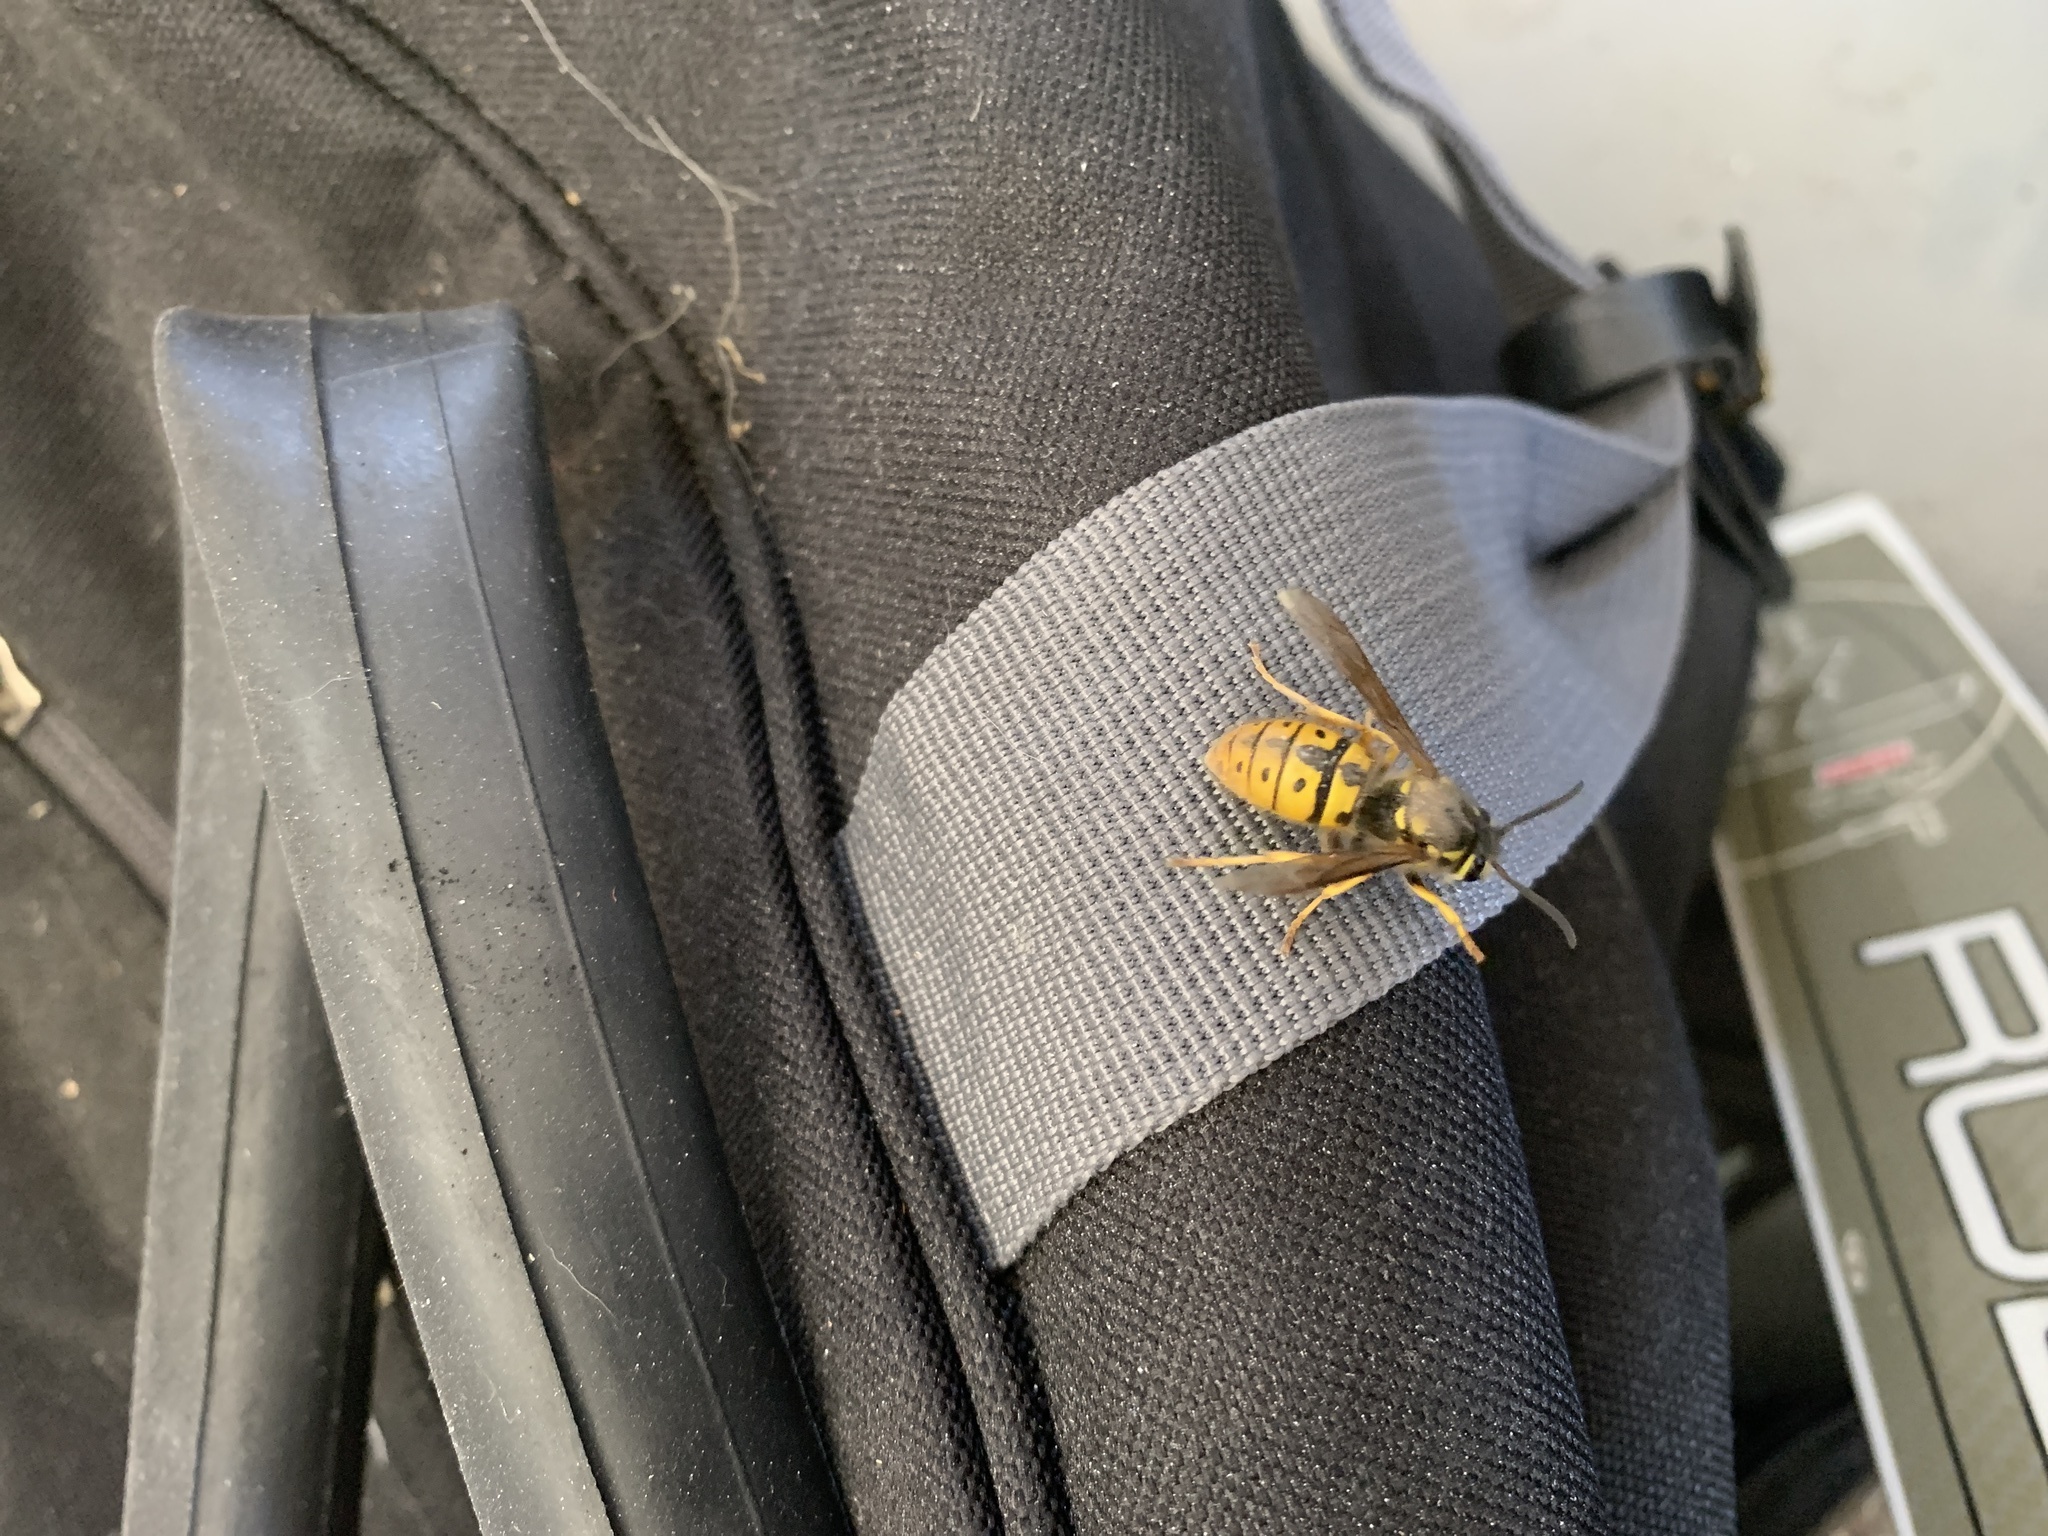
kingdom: Animalia
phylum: Arthropoda
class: Insecta
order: Hymenoptera
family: Vespidae
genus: Vespula
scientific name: Vespula germanica
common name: German wasp
